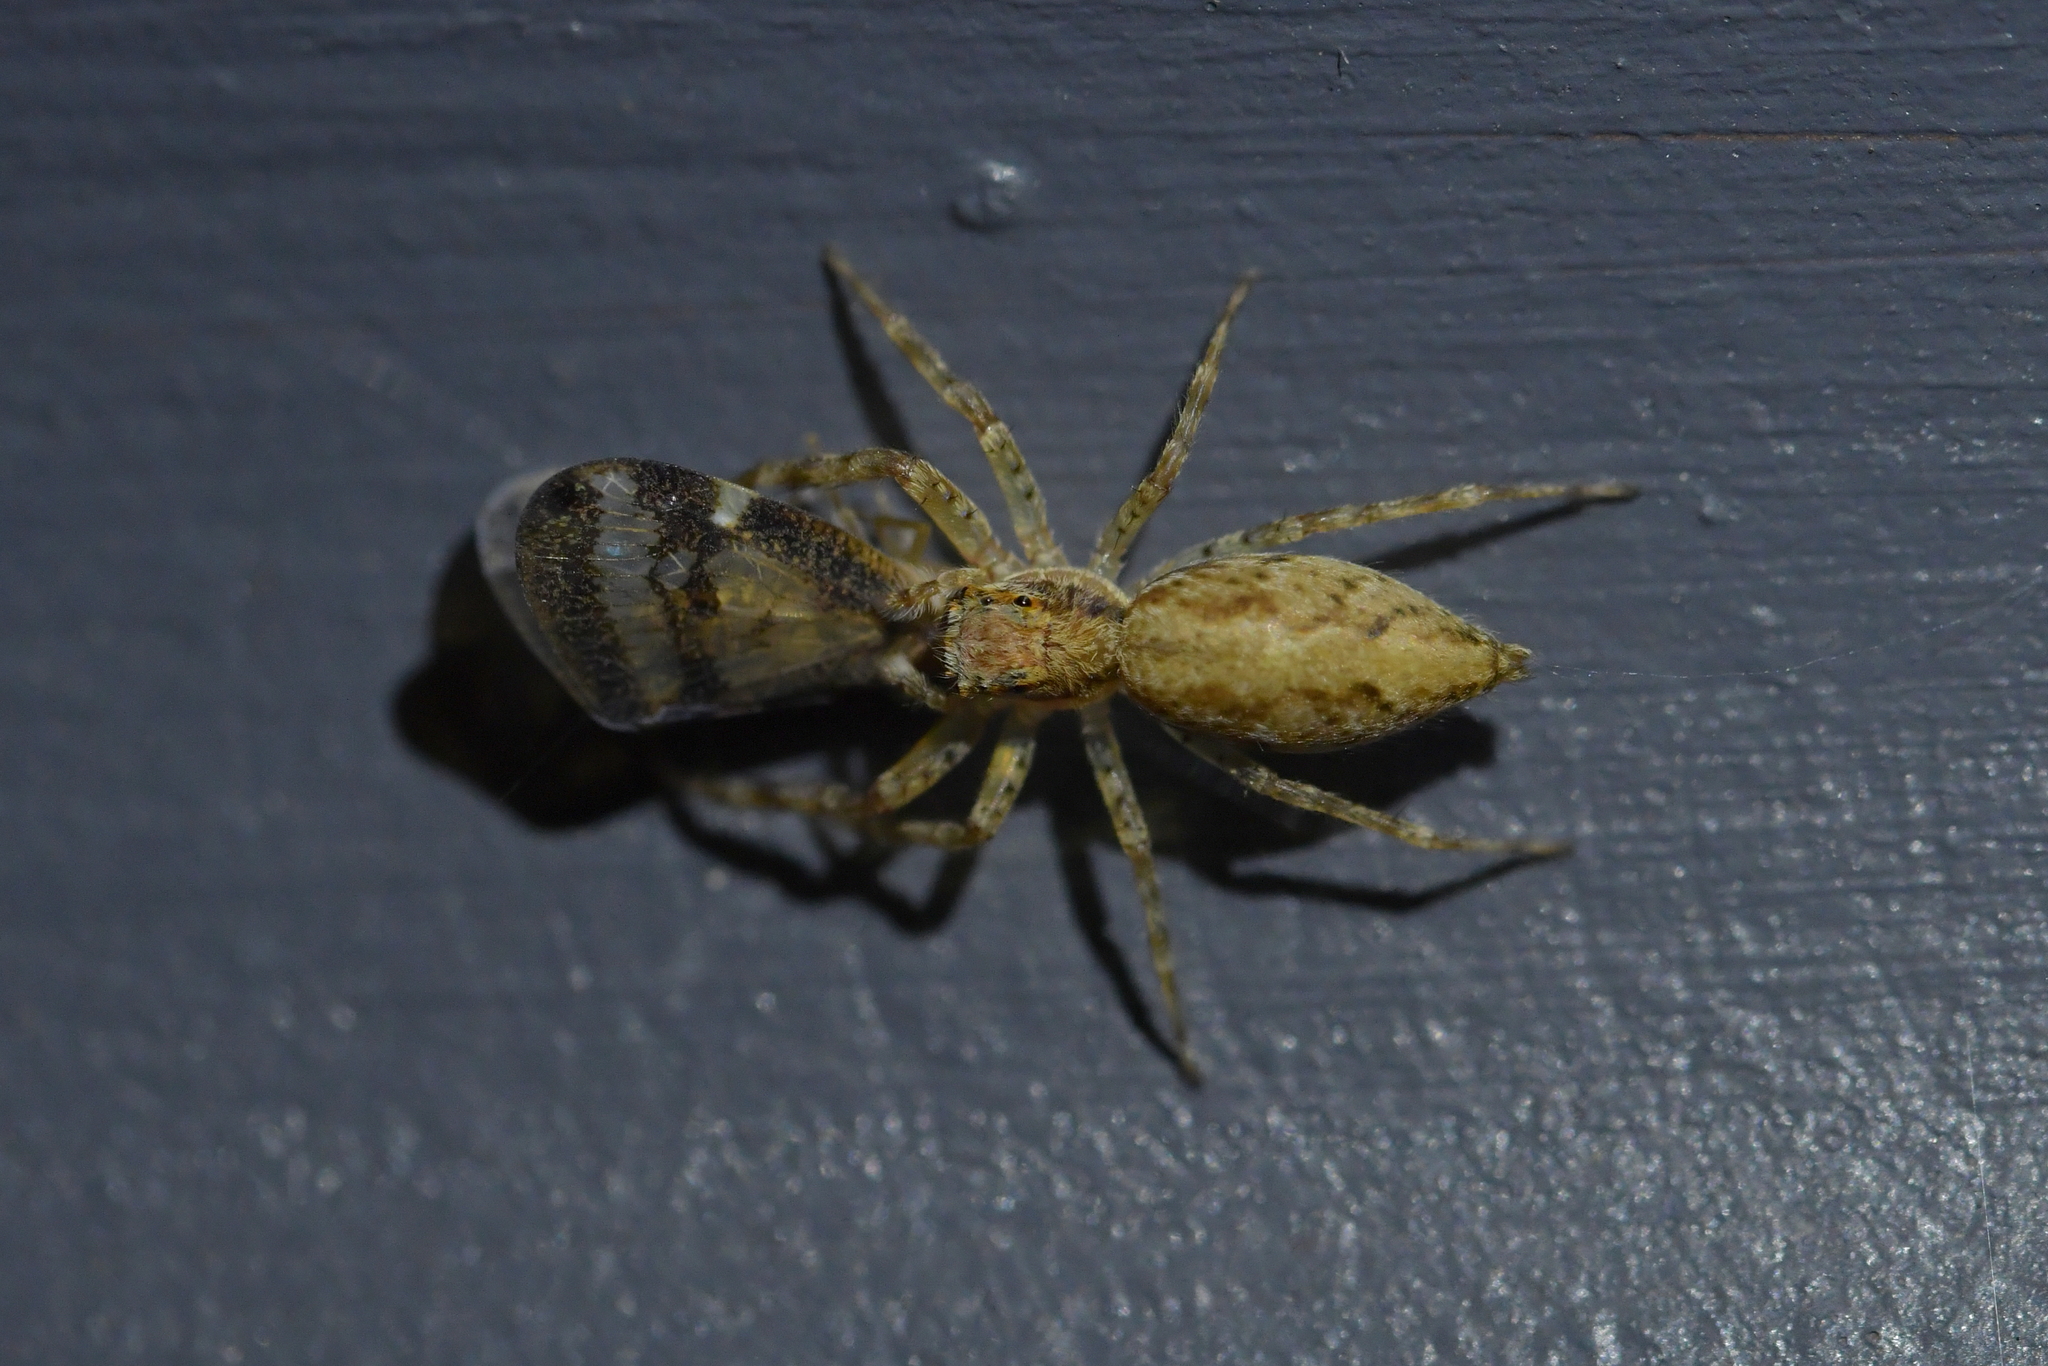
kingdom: Animalia
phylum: Arthropoda
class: Arachnida
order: Araneae
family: Salticidae
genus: Helpis
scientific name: Helpis minitabunda
